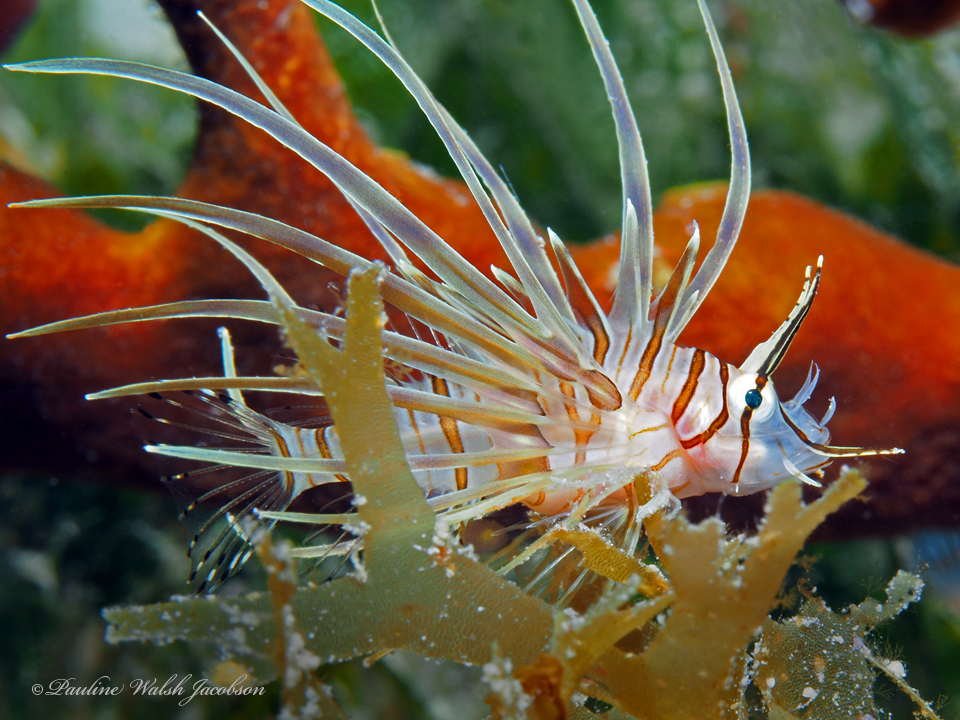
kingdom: Animalia
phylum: Chordata
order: Scorpaeniformes
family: Scorpaenidae
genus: Pterois
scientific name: Pterois volitans
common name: Lionfish
